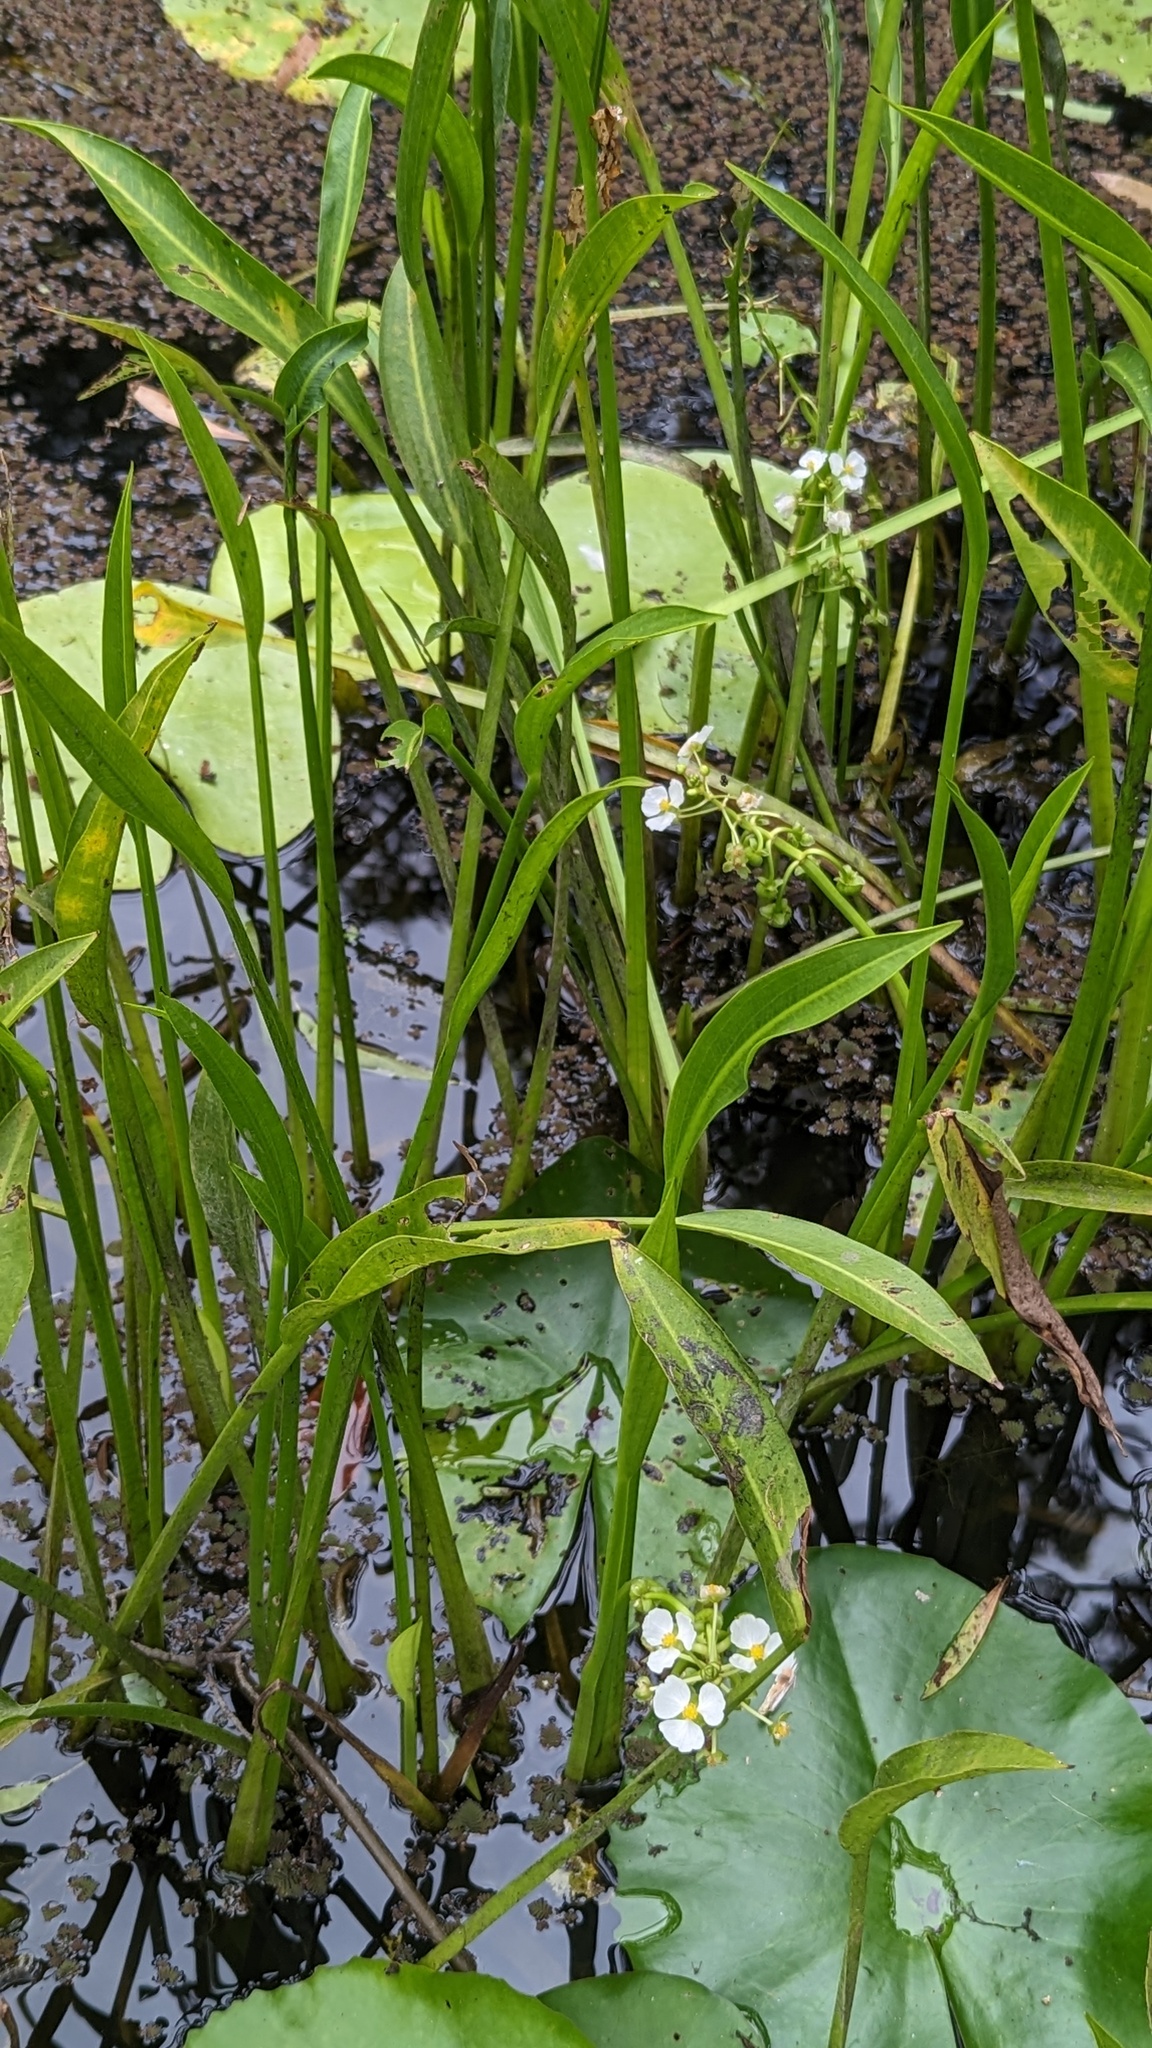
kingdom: Plantae
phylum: Tracheophyta
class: Liliopsida
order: Alismatales
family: Alismataceae
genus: Sagittaria
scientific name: Sagittaria platyphylla
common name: Broad-leaf arrowhead
